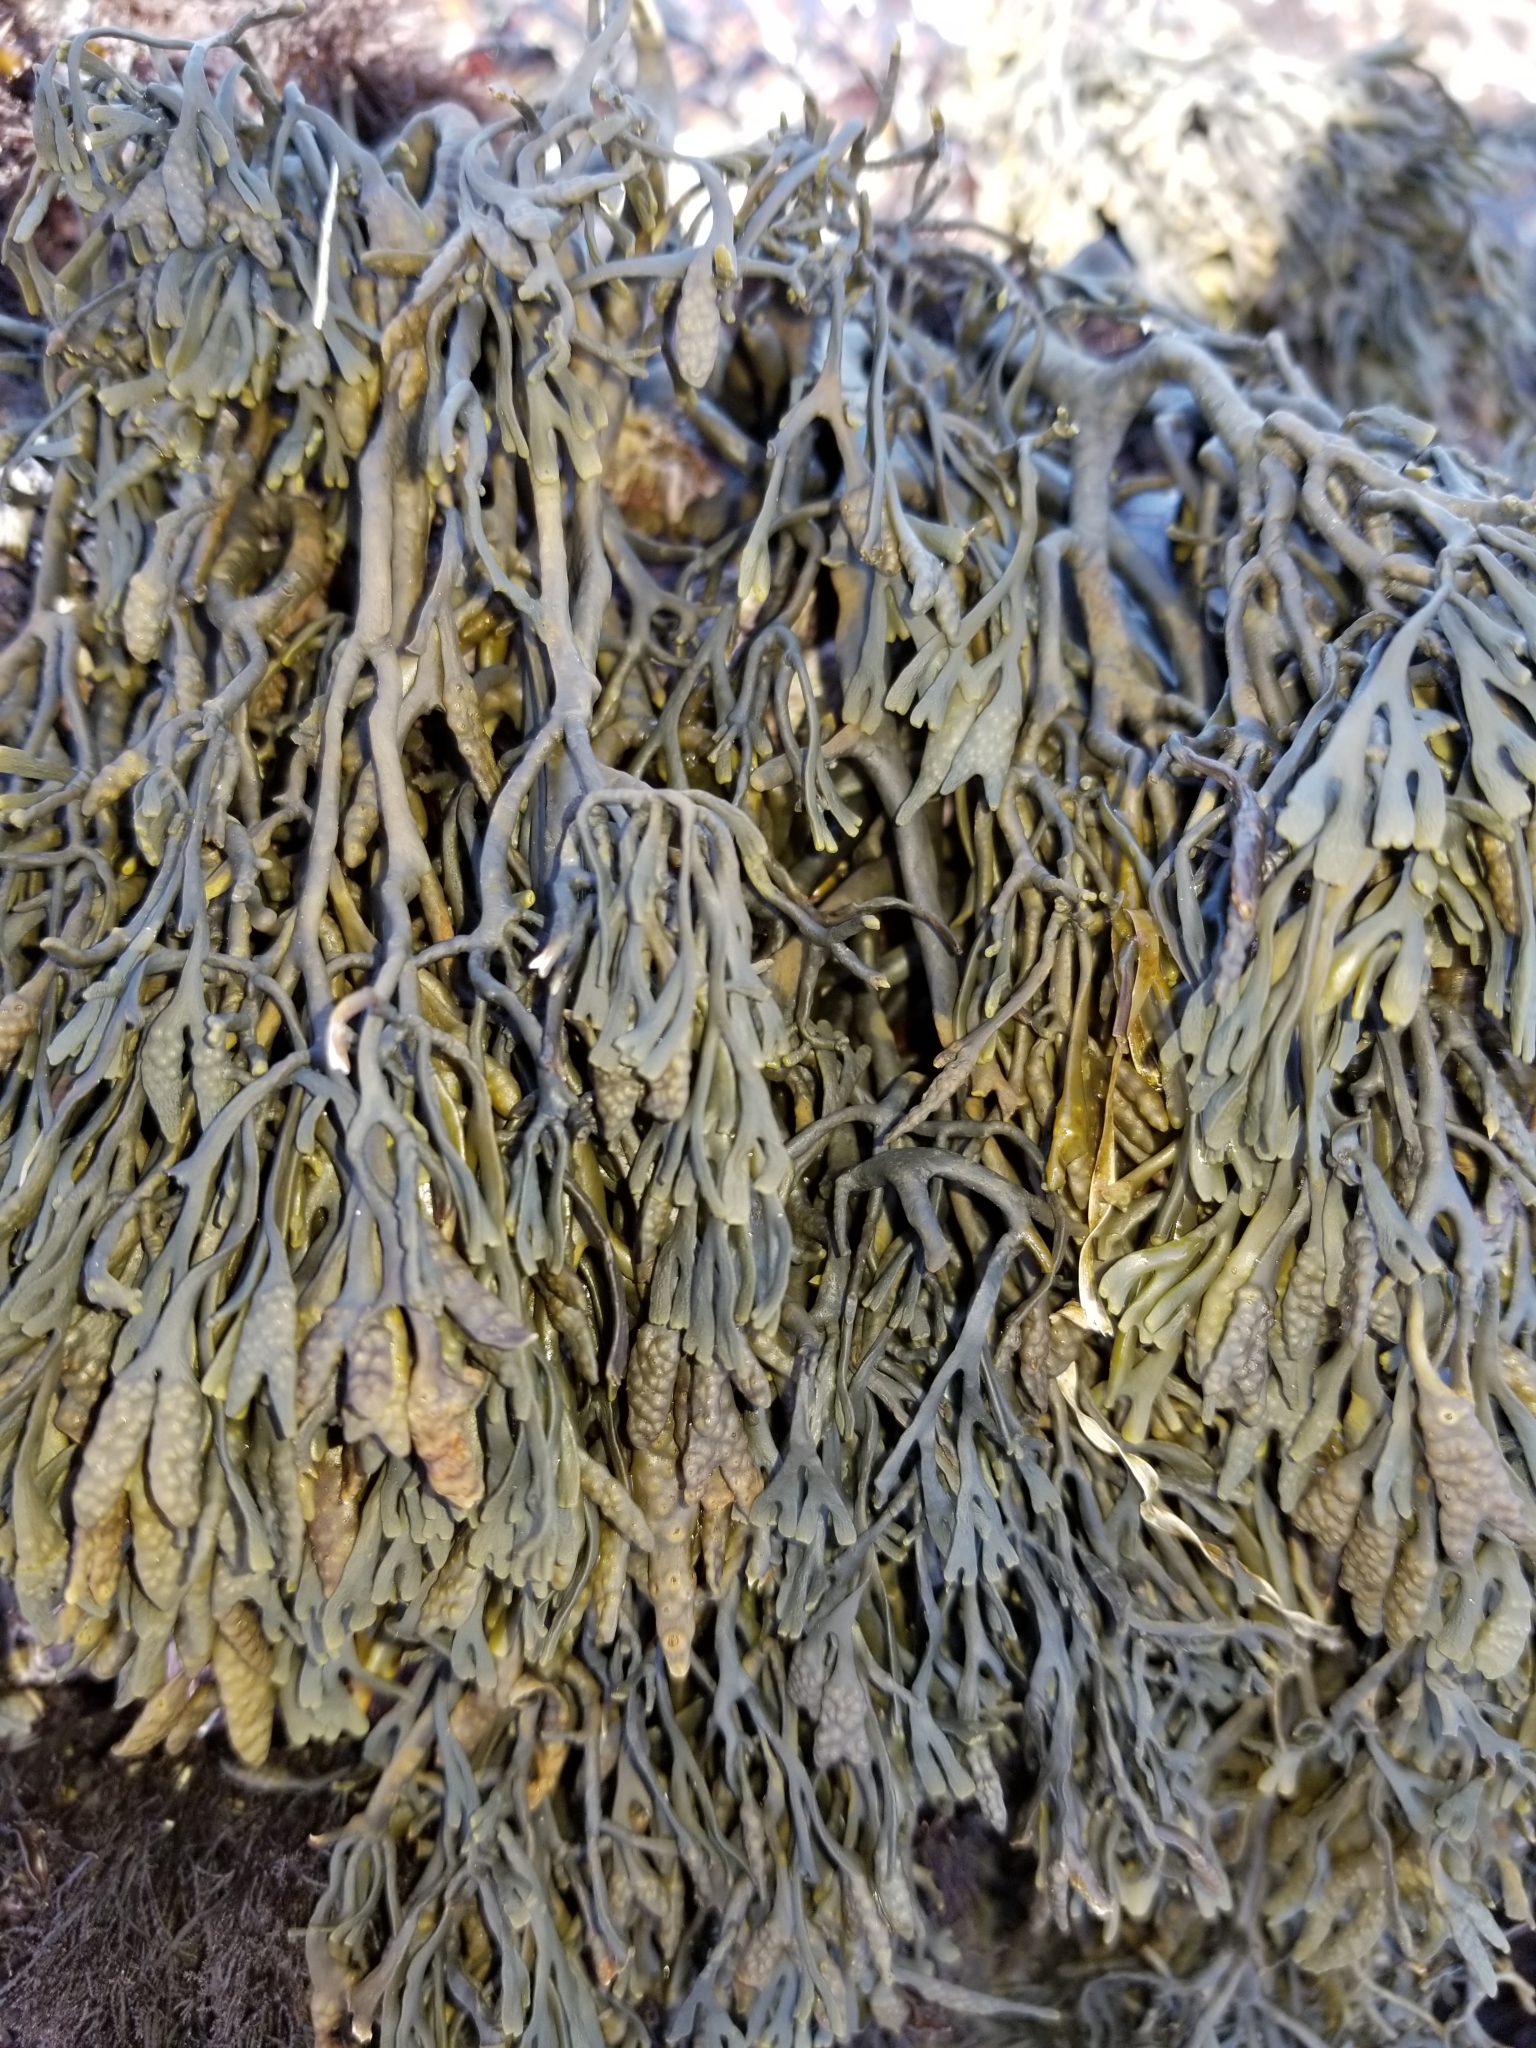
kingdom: Chromista
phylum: Ochrophyta
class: Phaeophyceae
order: Fucales
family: Fucaceae
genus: Silvetia
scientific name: Silvetia
